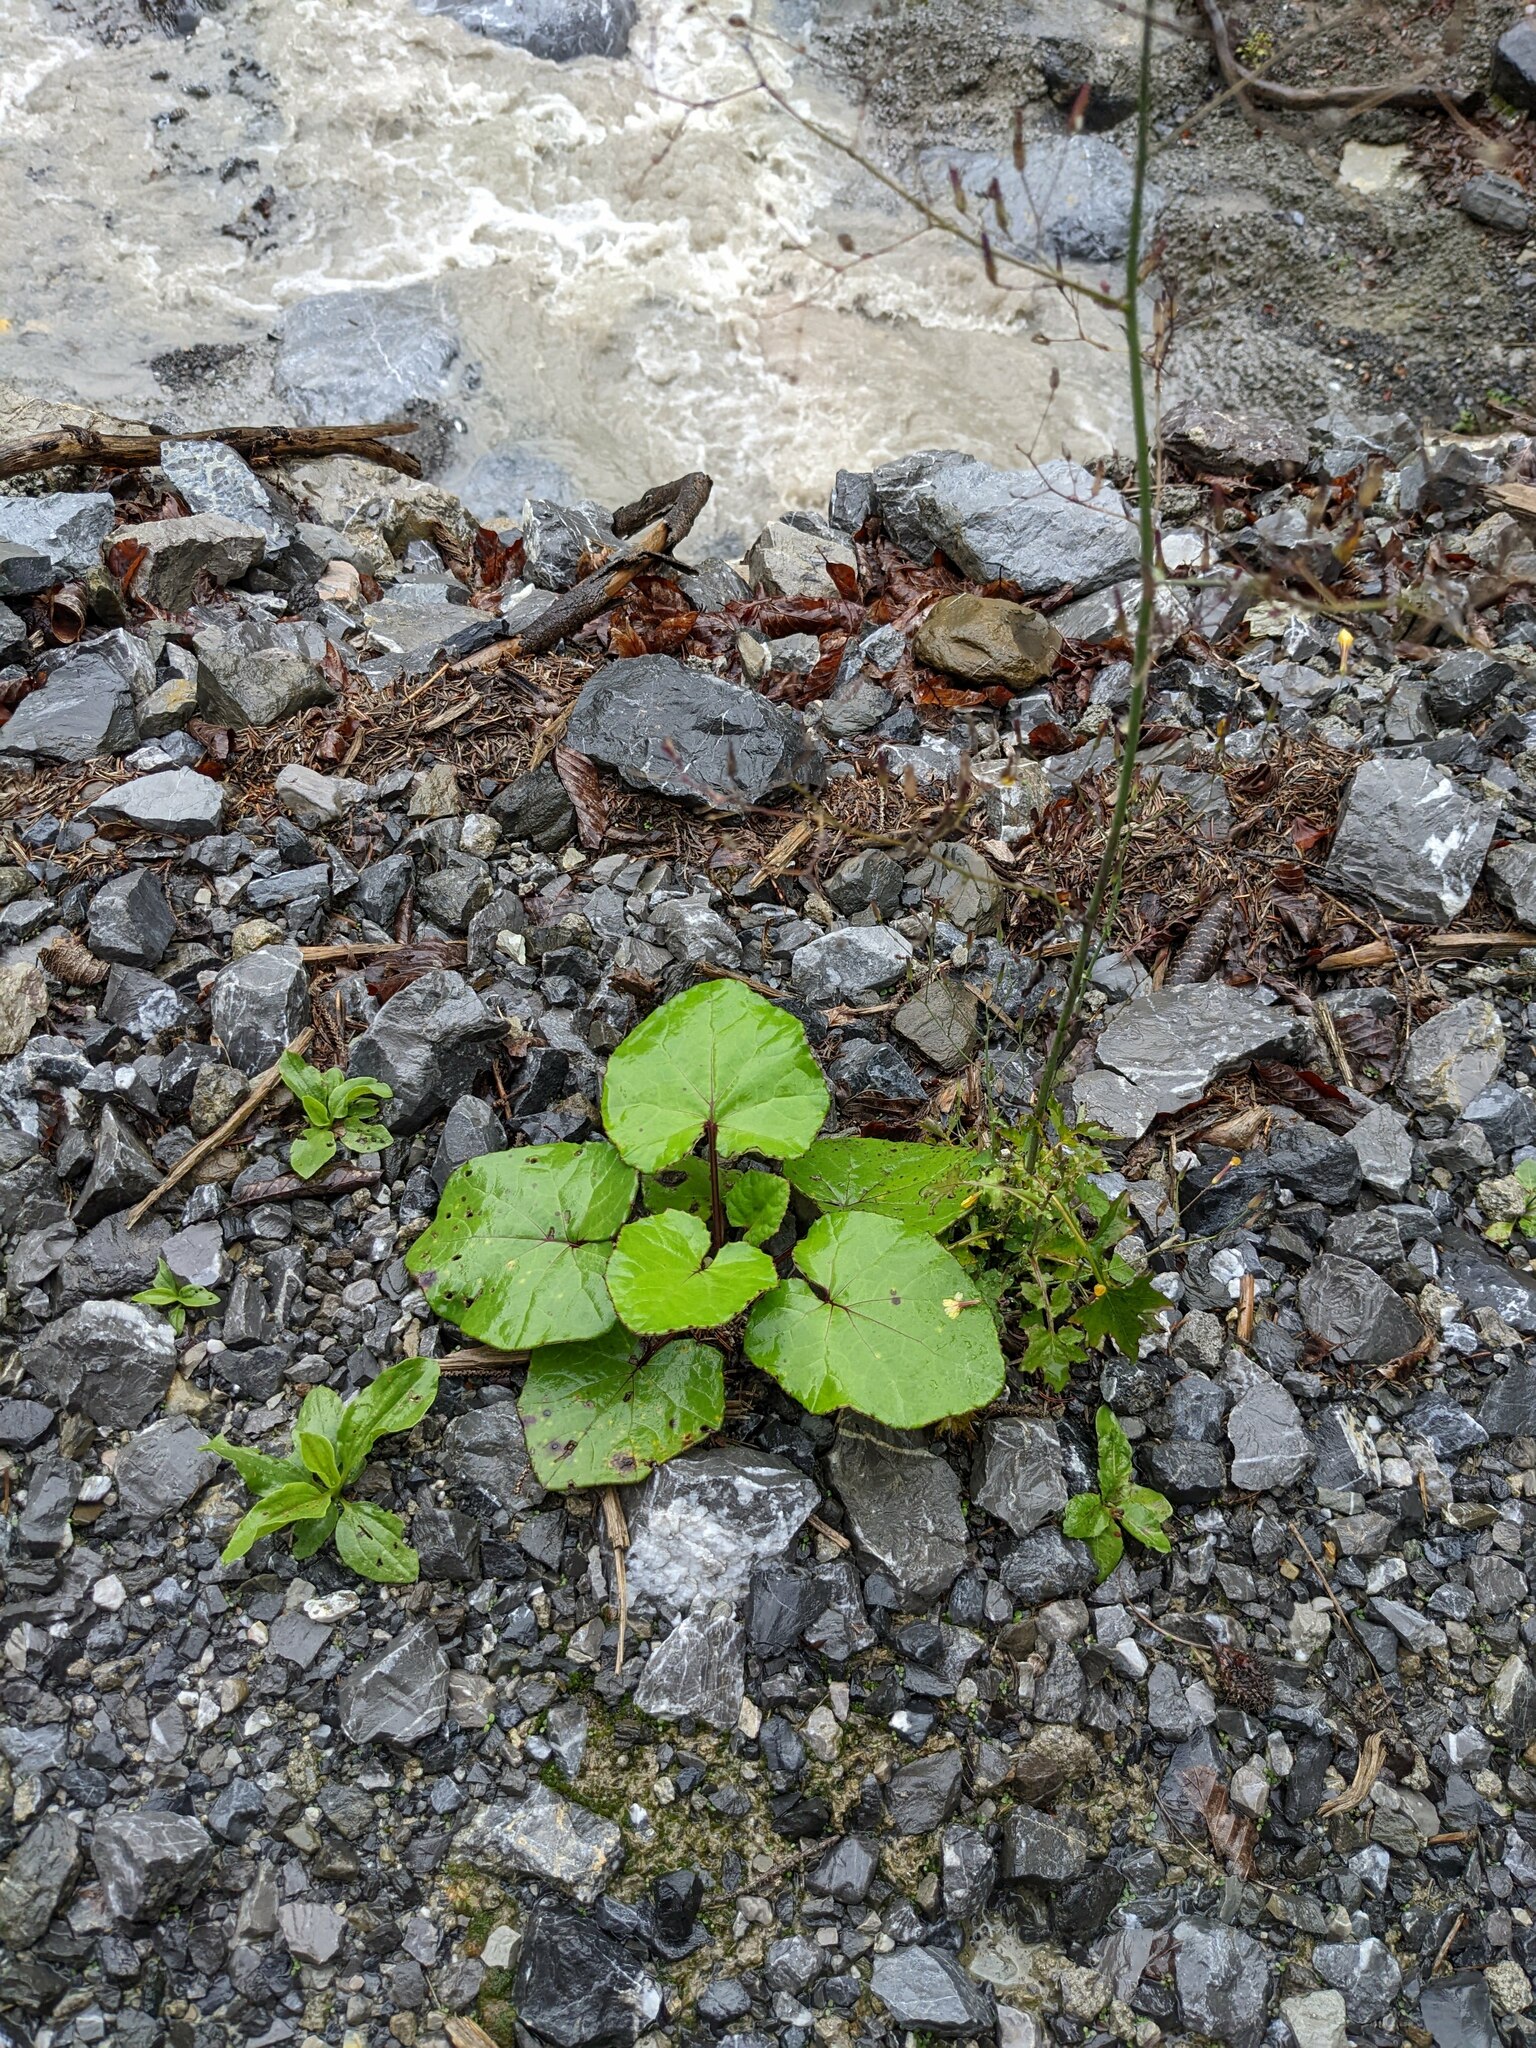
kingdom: Plantae
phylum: Tracheophyta
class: Magnoliopsida
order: Asterales
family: Asteraceae
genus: Tussilago
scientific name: Tussilago farfara
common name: Coltsfoot
